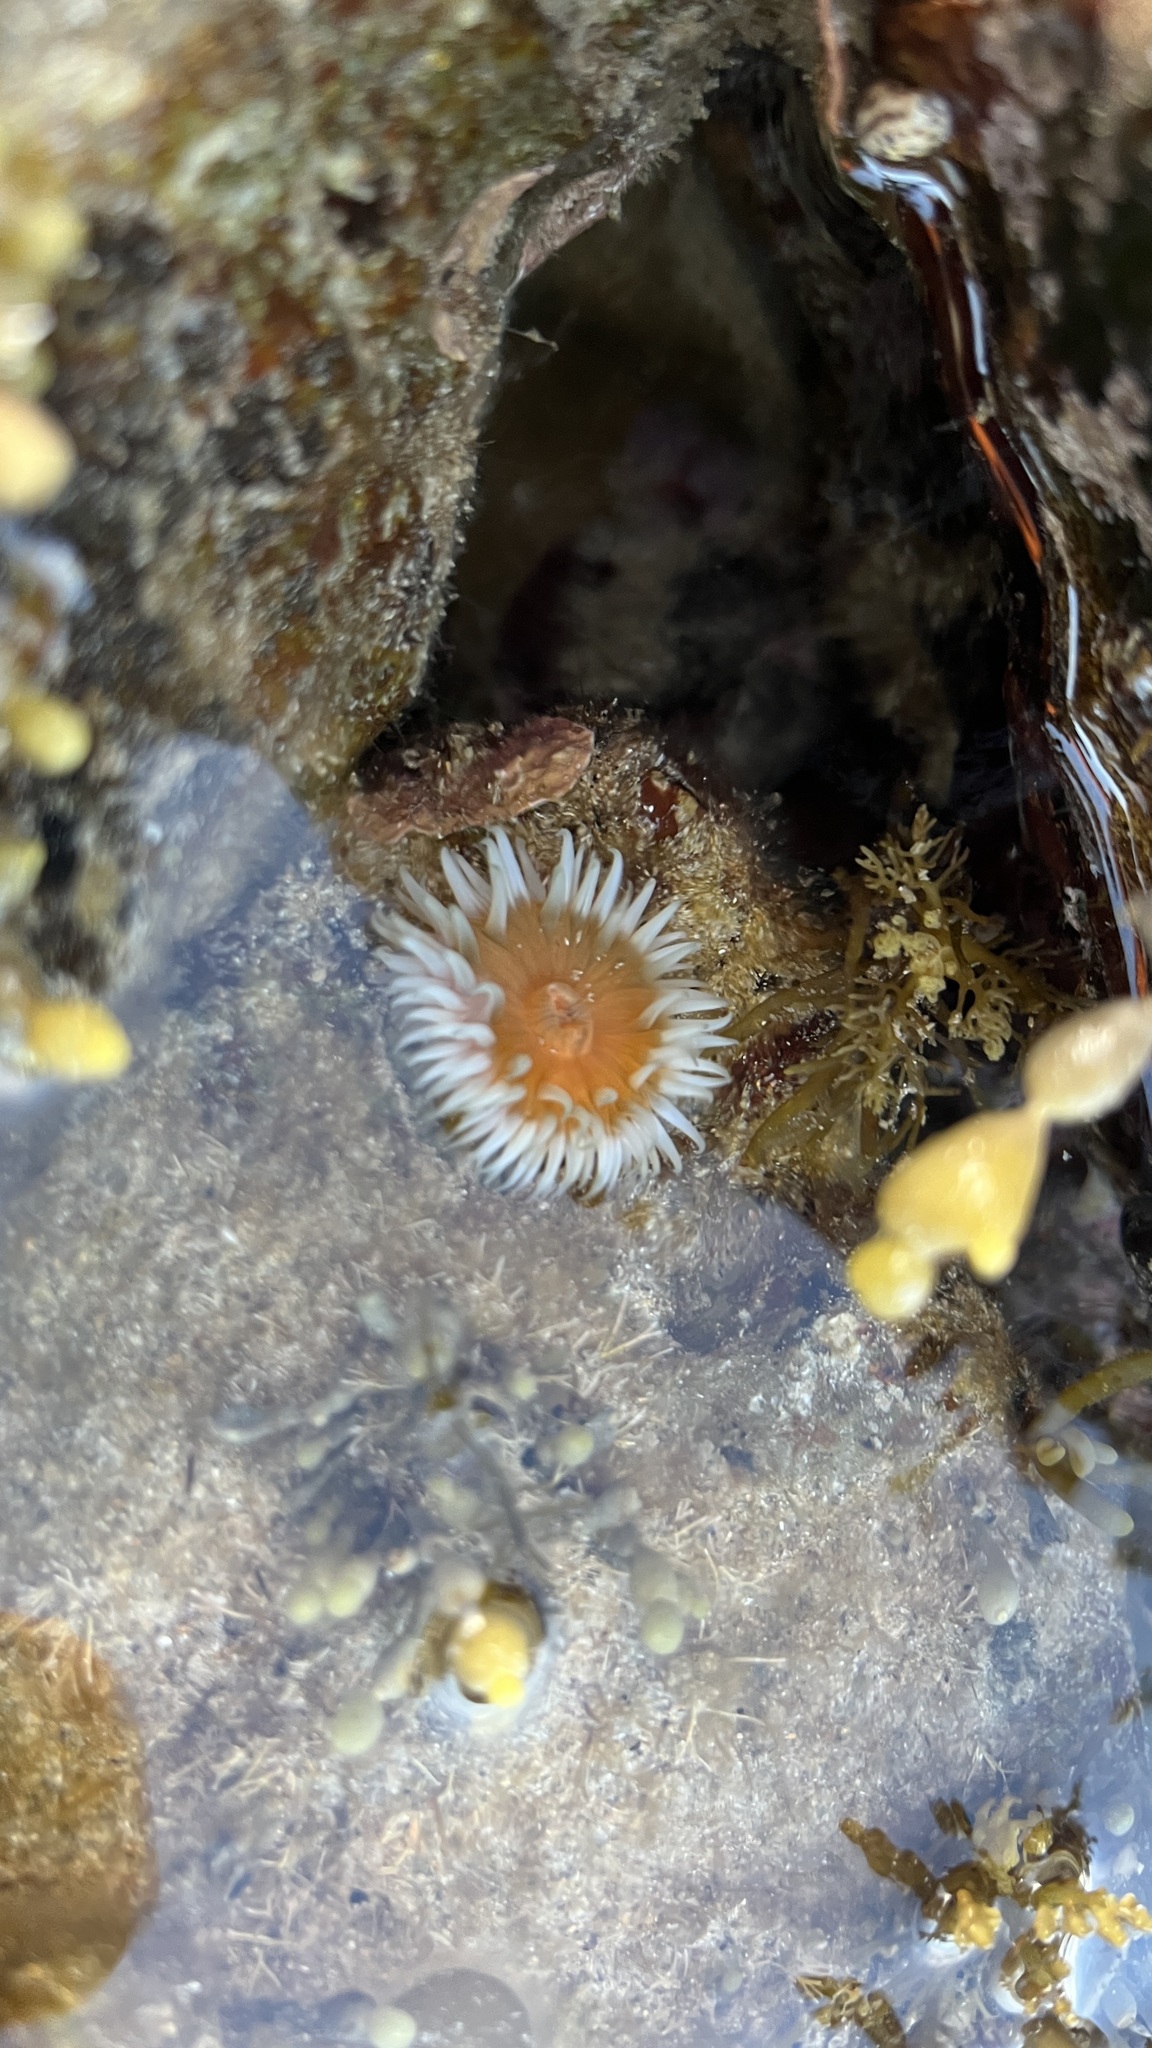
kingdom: Animalia
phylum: Cnidaria
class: Anthozoa
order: Actiniaria
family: Sagartiidae
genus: Anthothoe
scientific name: Anthothoe albocincta
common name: Orange striped anemone
